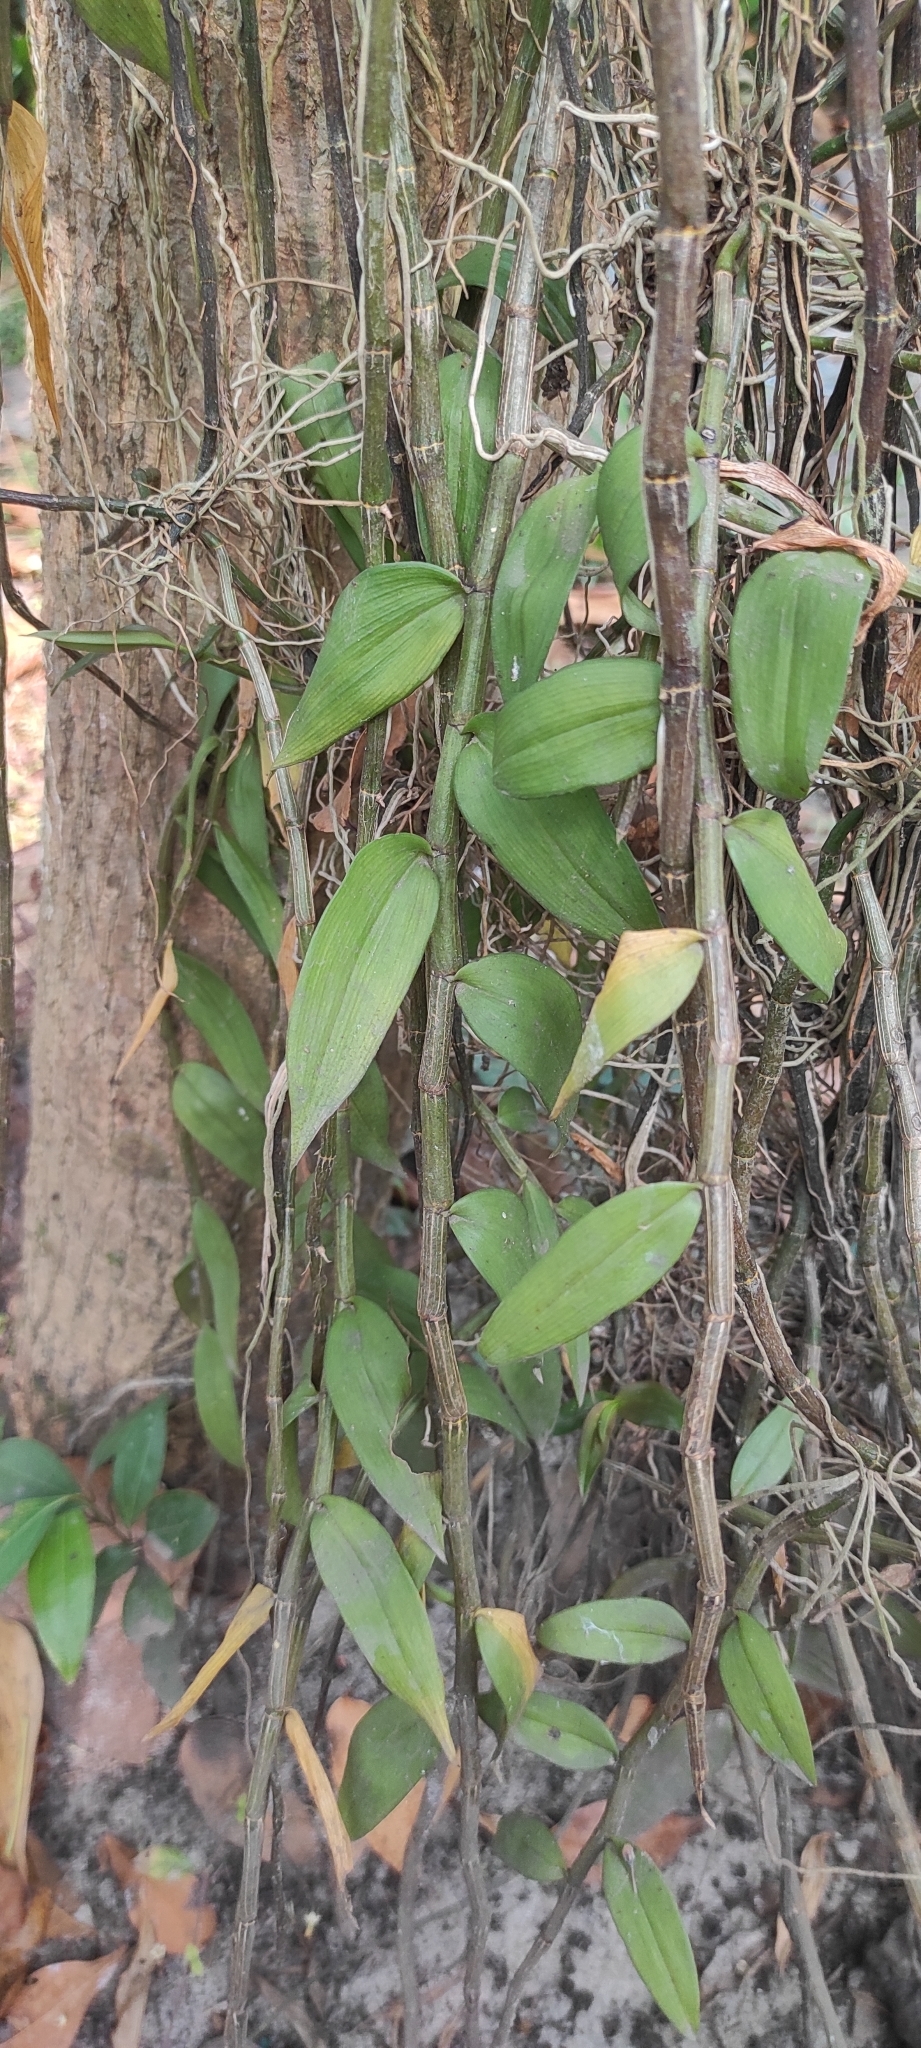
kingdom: Plantae
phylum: Tracheophyta
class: Liliopsida
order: Asparagales
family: Orchidaceae
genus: Dendrobium
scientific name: Dendrobium aphyllum
